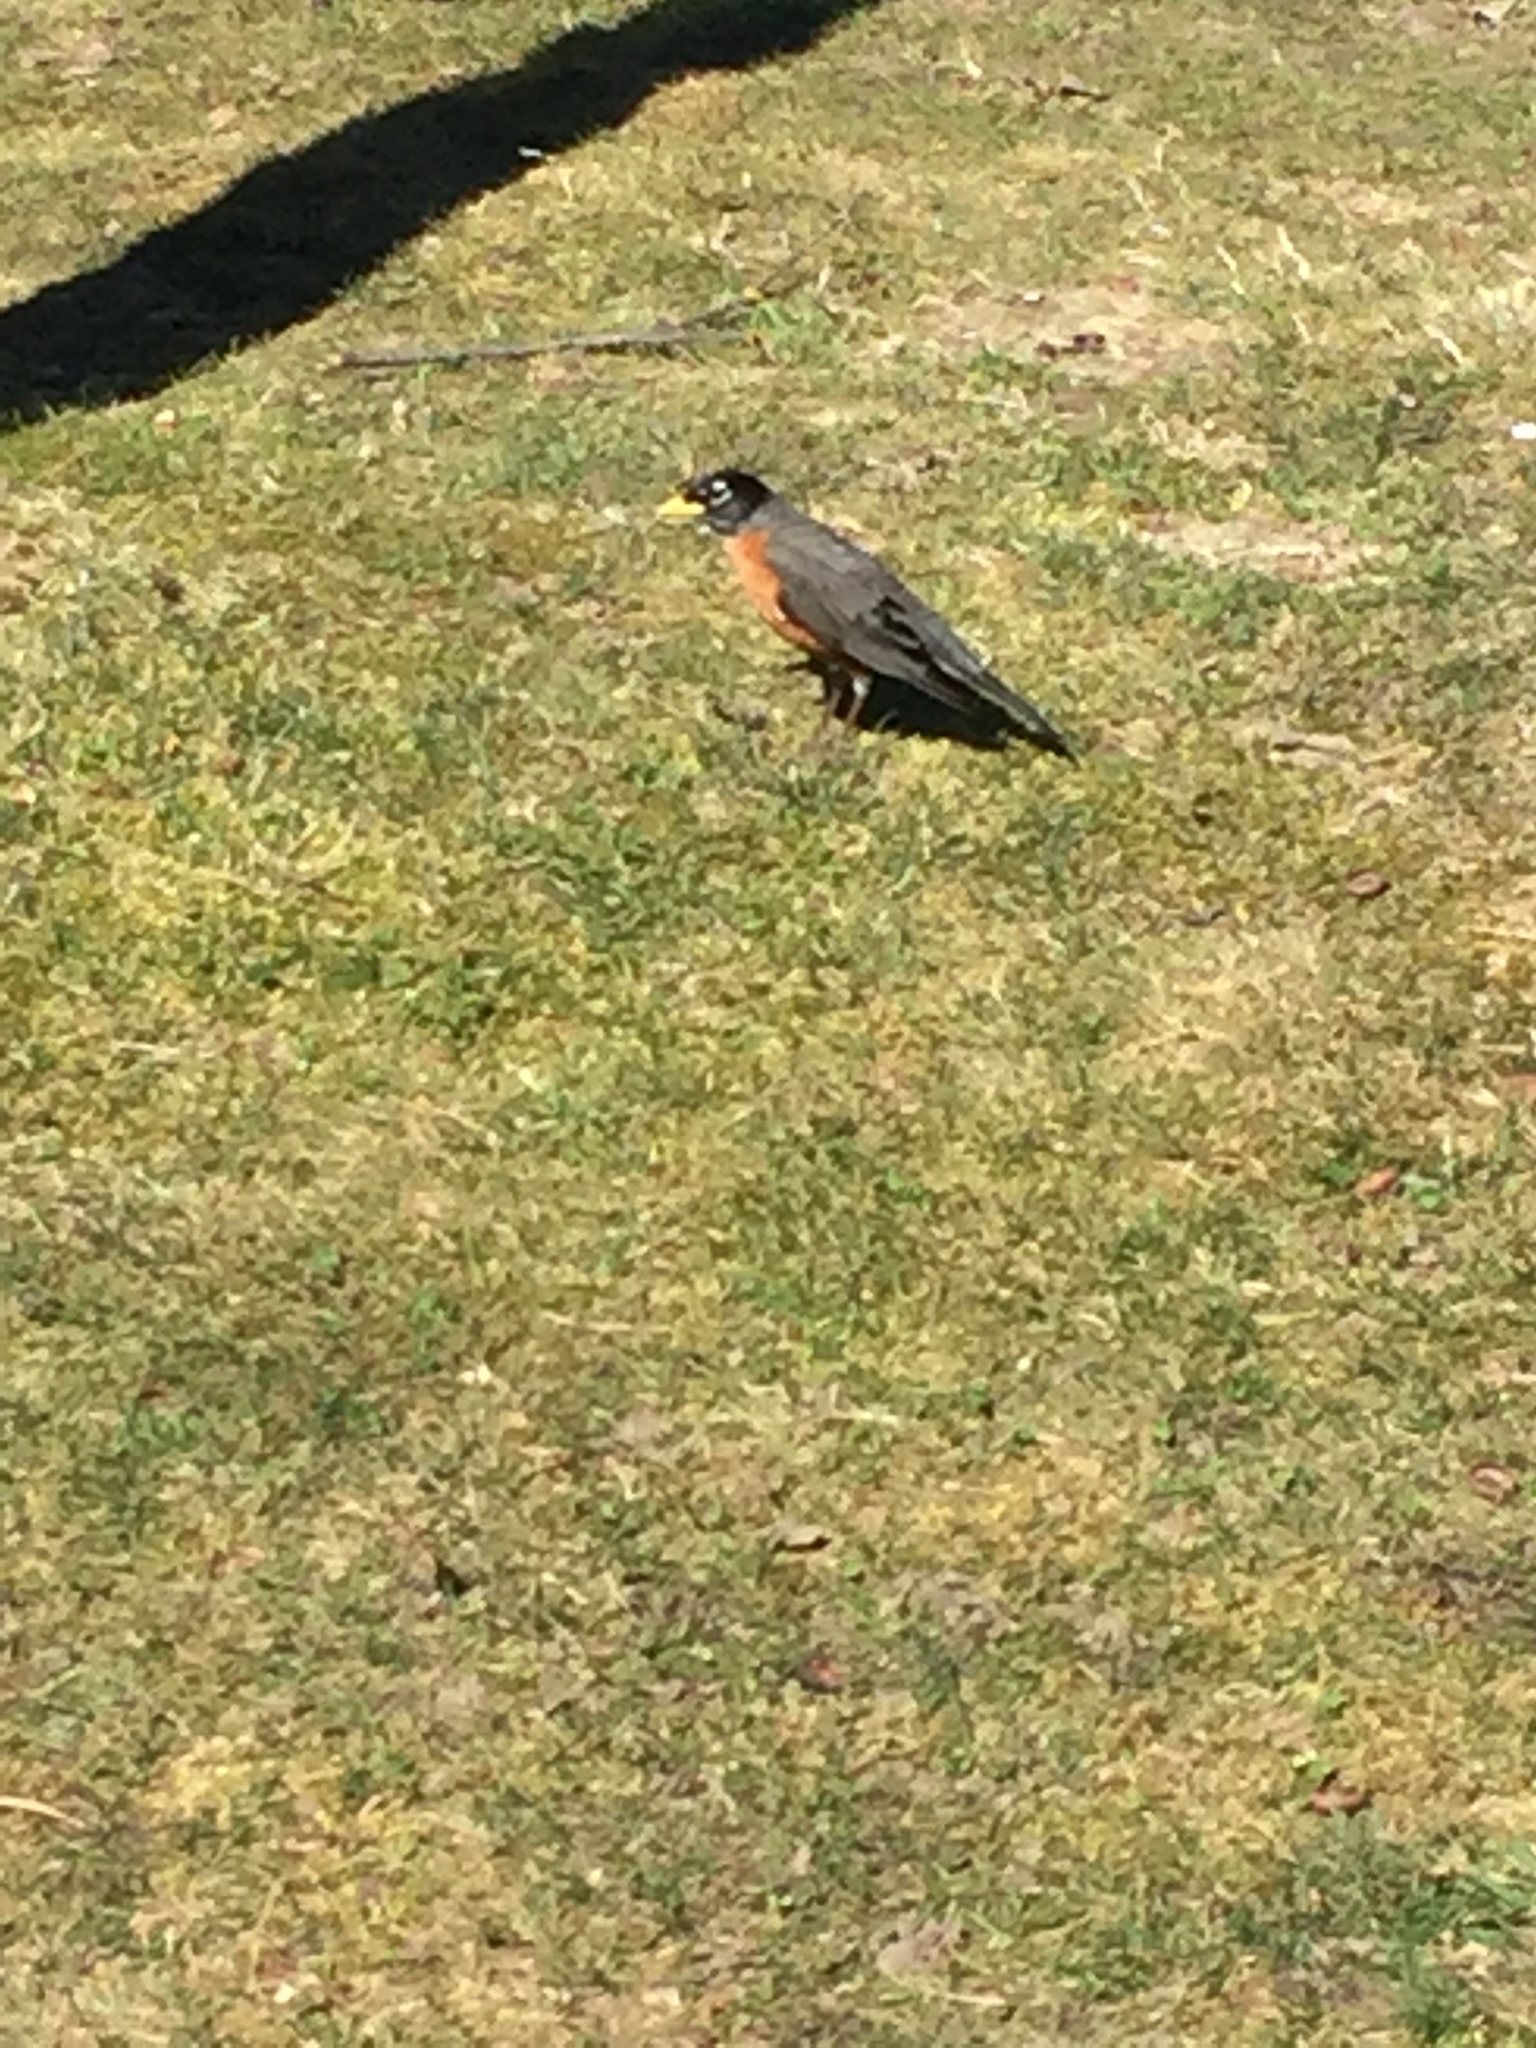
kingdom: Animalia
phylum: Chordata
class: Aves
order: Passeriformes
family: Turdidae
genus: Turdus
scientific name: Turdus migratorius
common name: American robin
